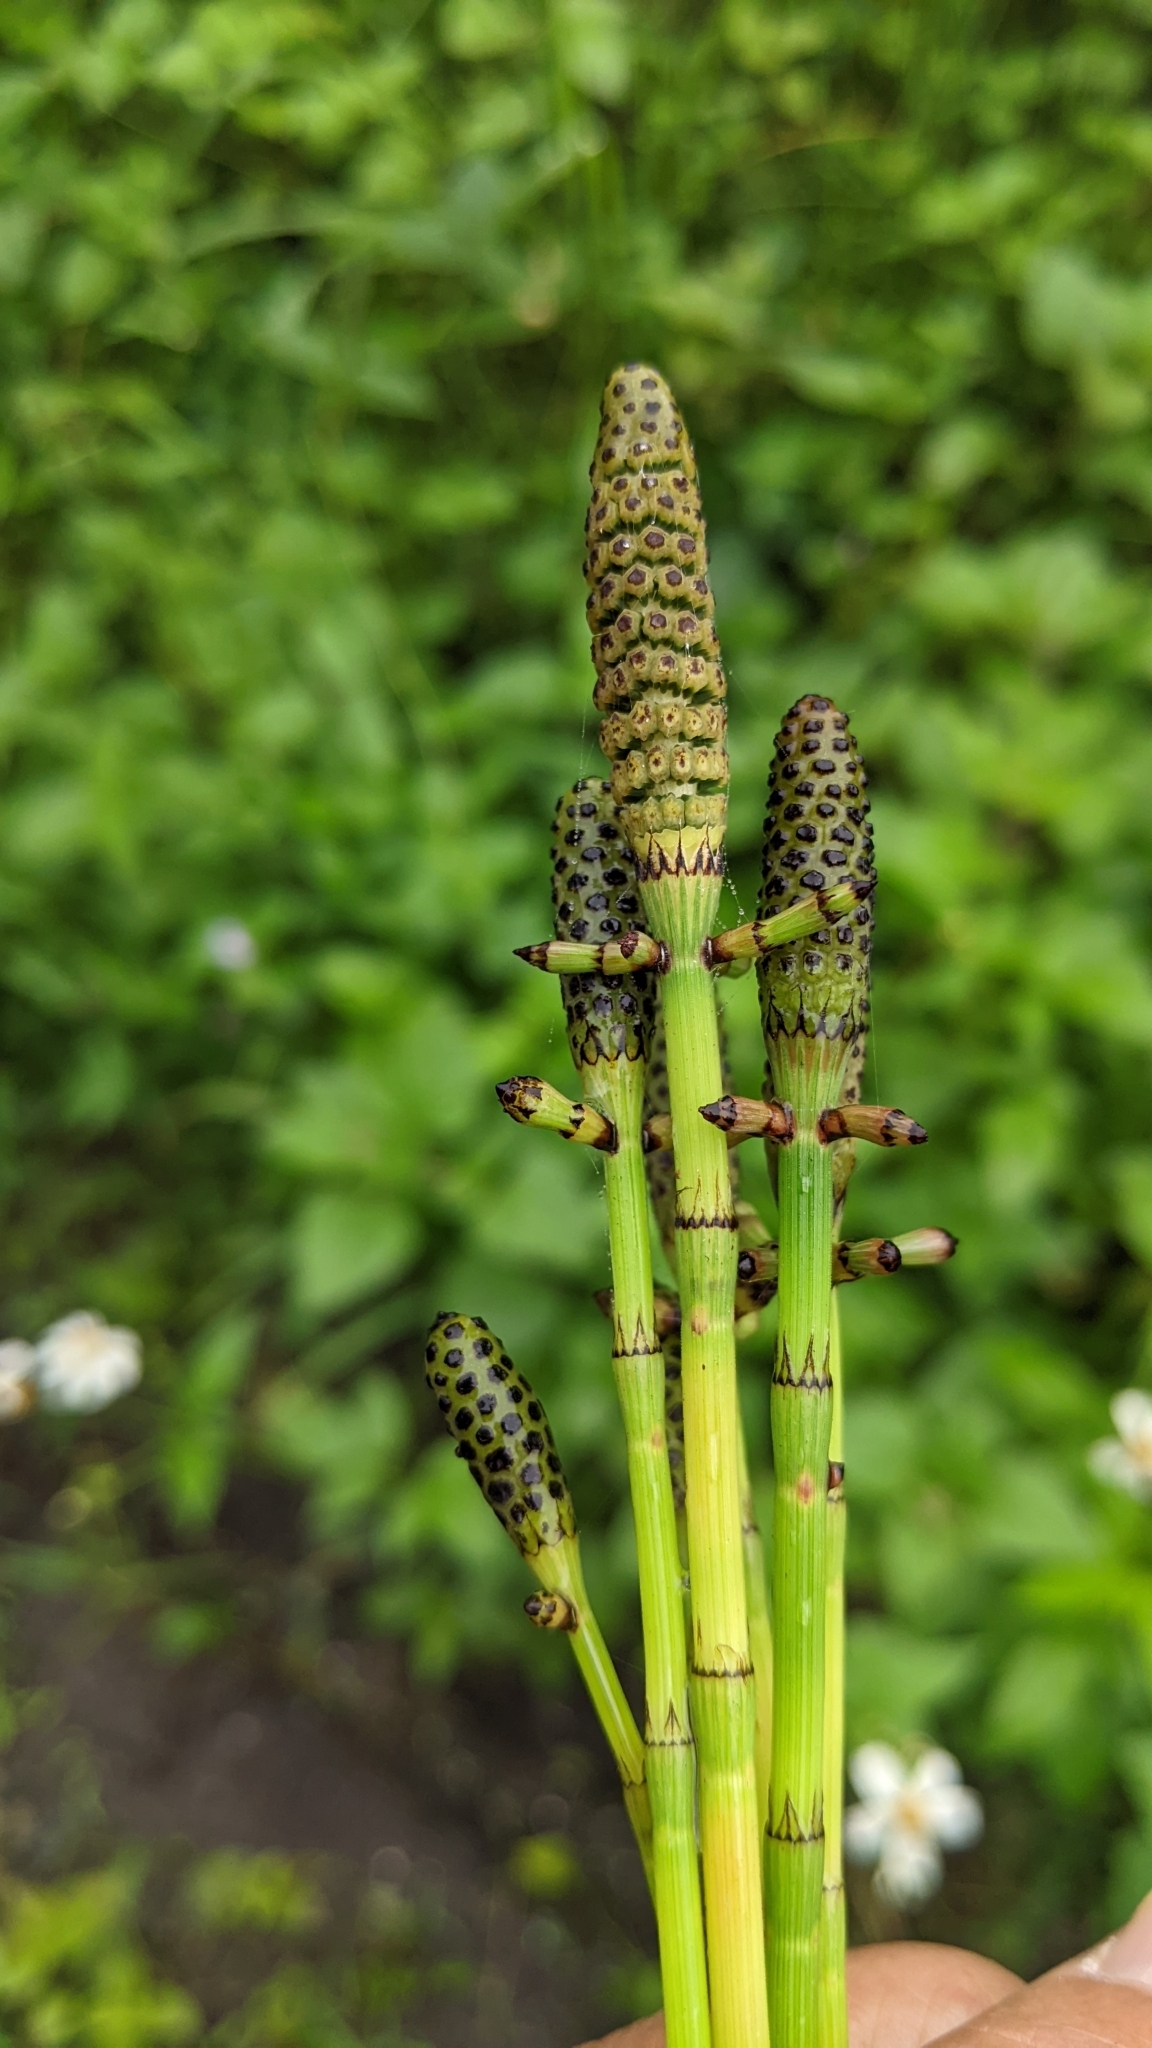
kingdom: Plantae
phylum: Tracheophyta
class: Polypodiopsida
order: Equisetales
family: Equisetaceae
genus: Equisetum
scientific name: Equisetum ramosissimum
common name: Branched horsetail
